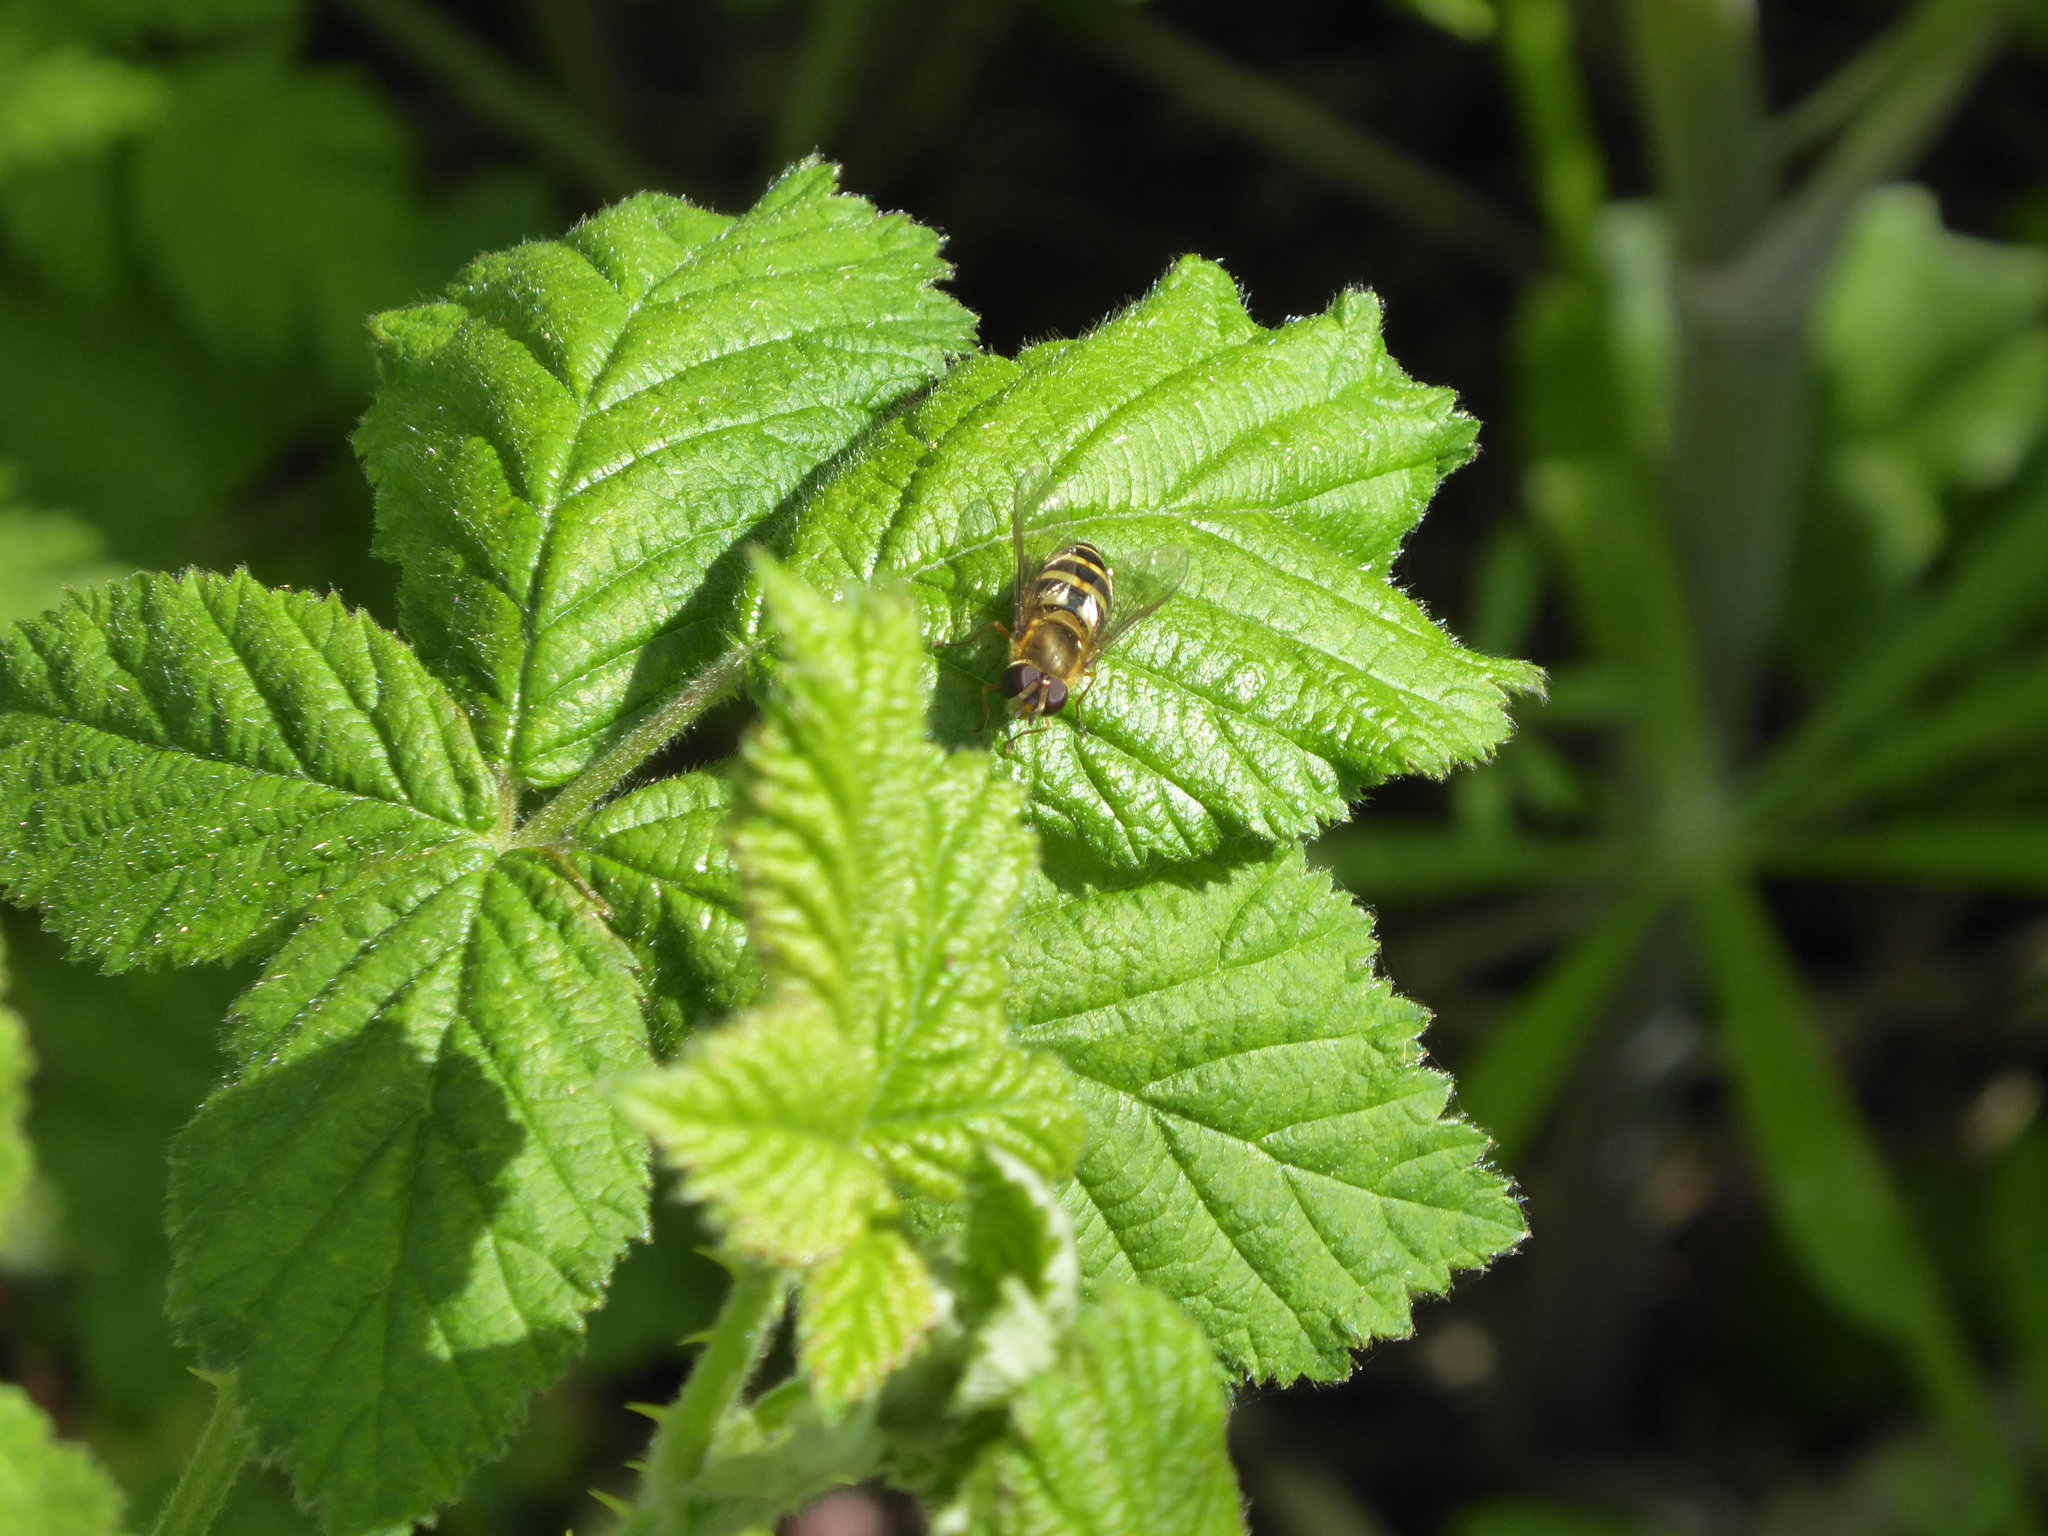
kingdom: Animalia
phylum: Arthropoda
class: Insecta
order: Diptera
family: Syrphidae
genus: Syrphus
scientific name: Syrphus
